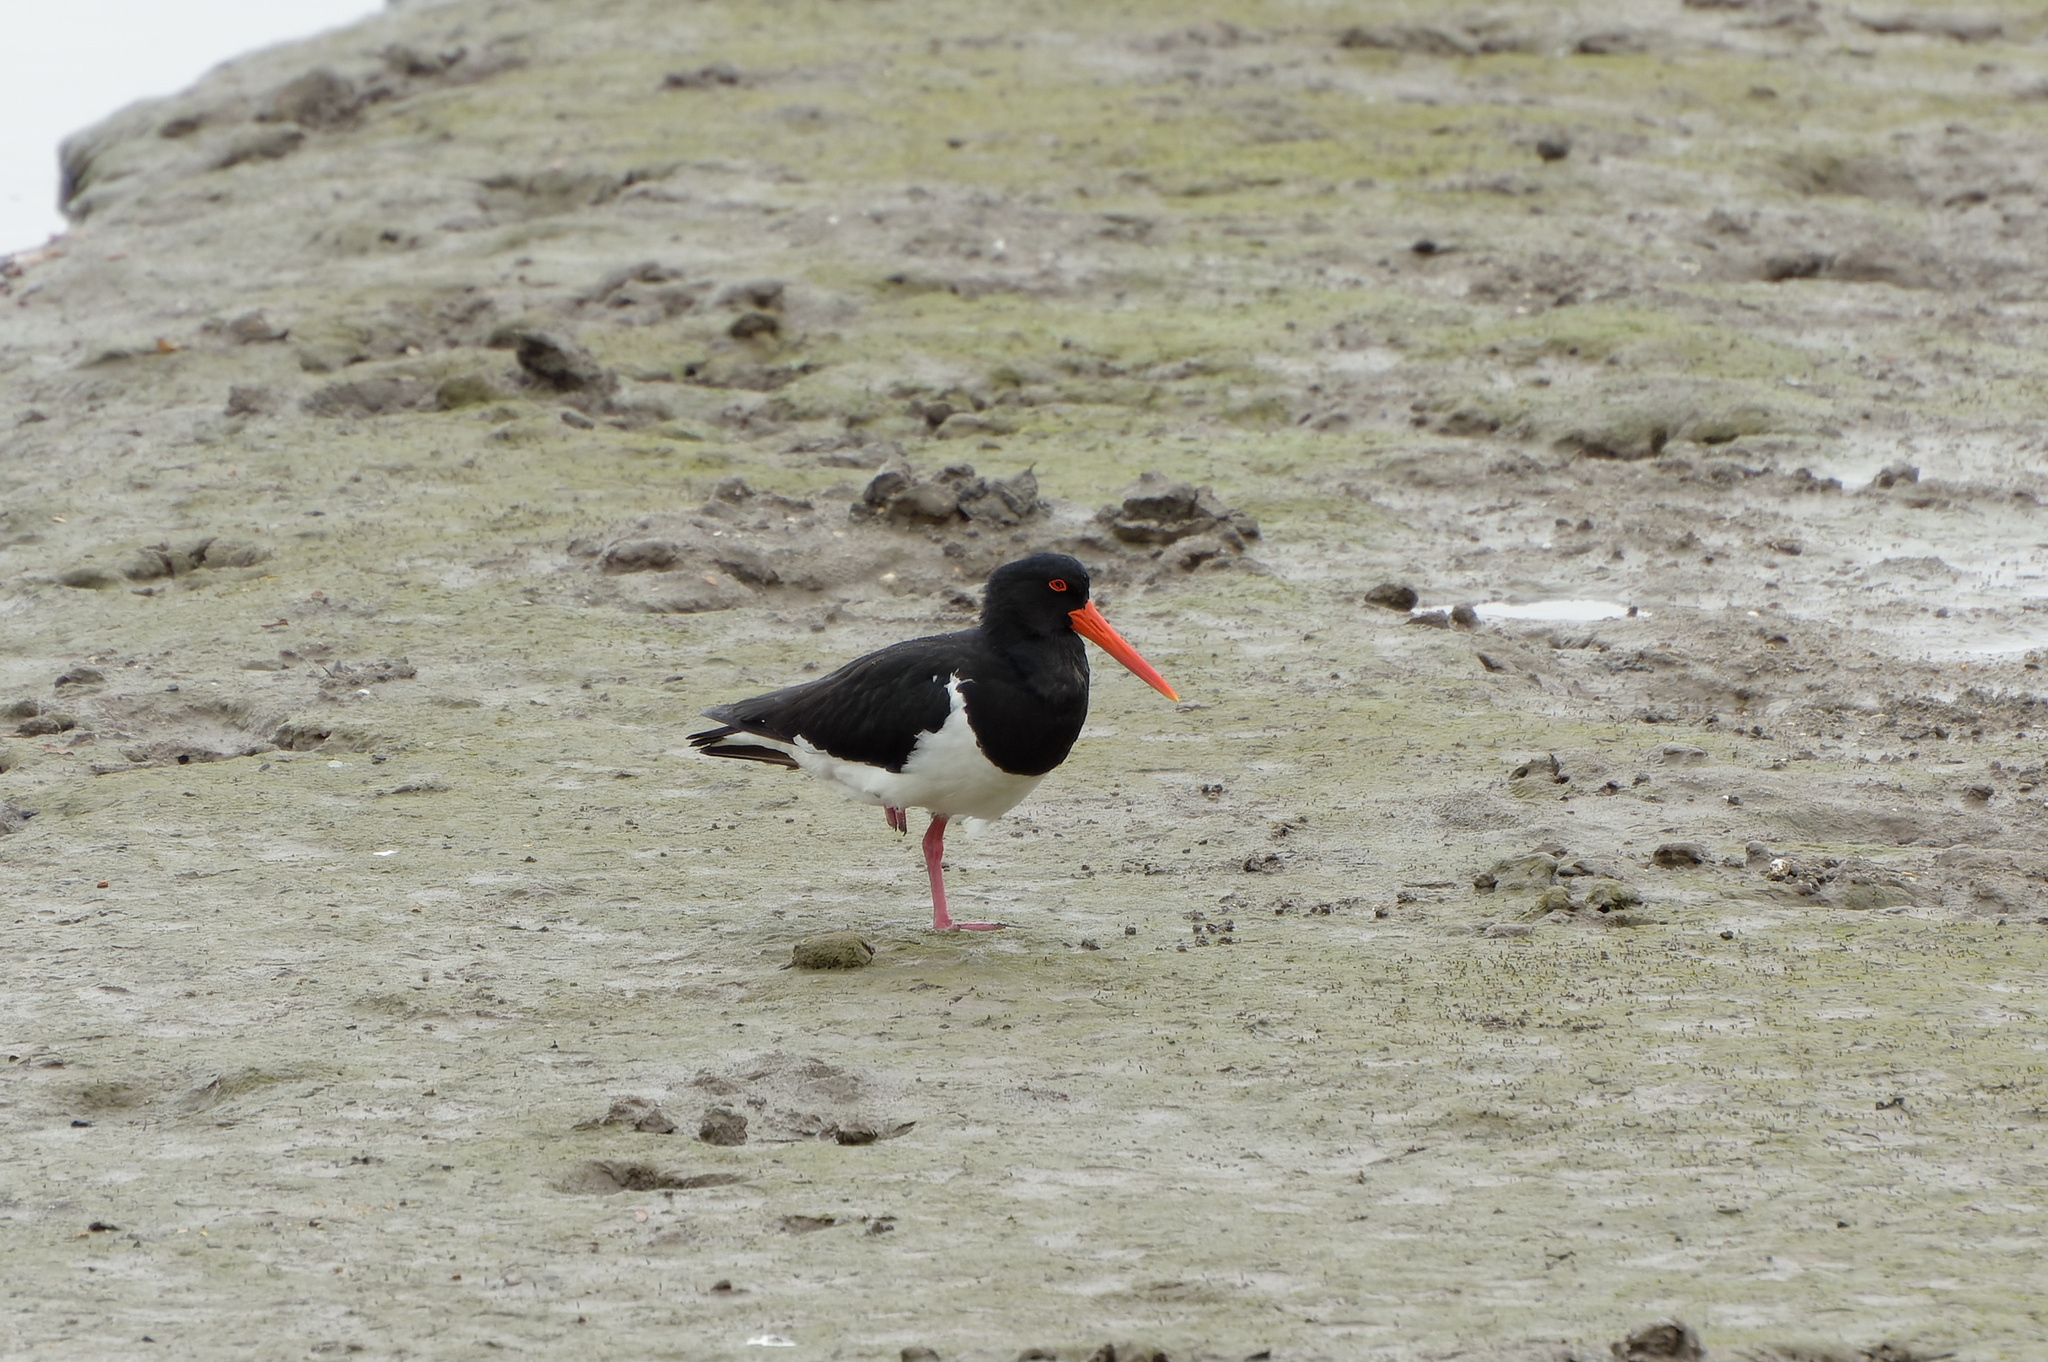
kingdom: Animalia
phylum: Chordata
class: Aves
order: Charadriiformes
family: Haematopodidae
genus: Haematopus
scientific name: Haematopus longirostris
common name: Pied oystercatcher
